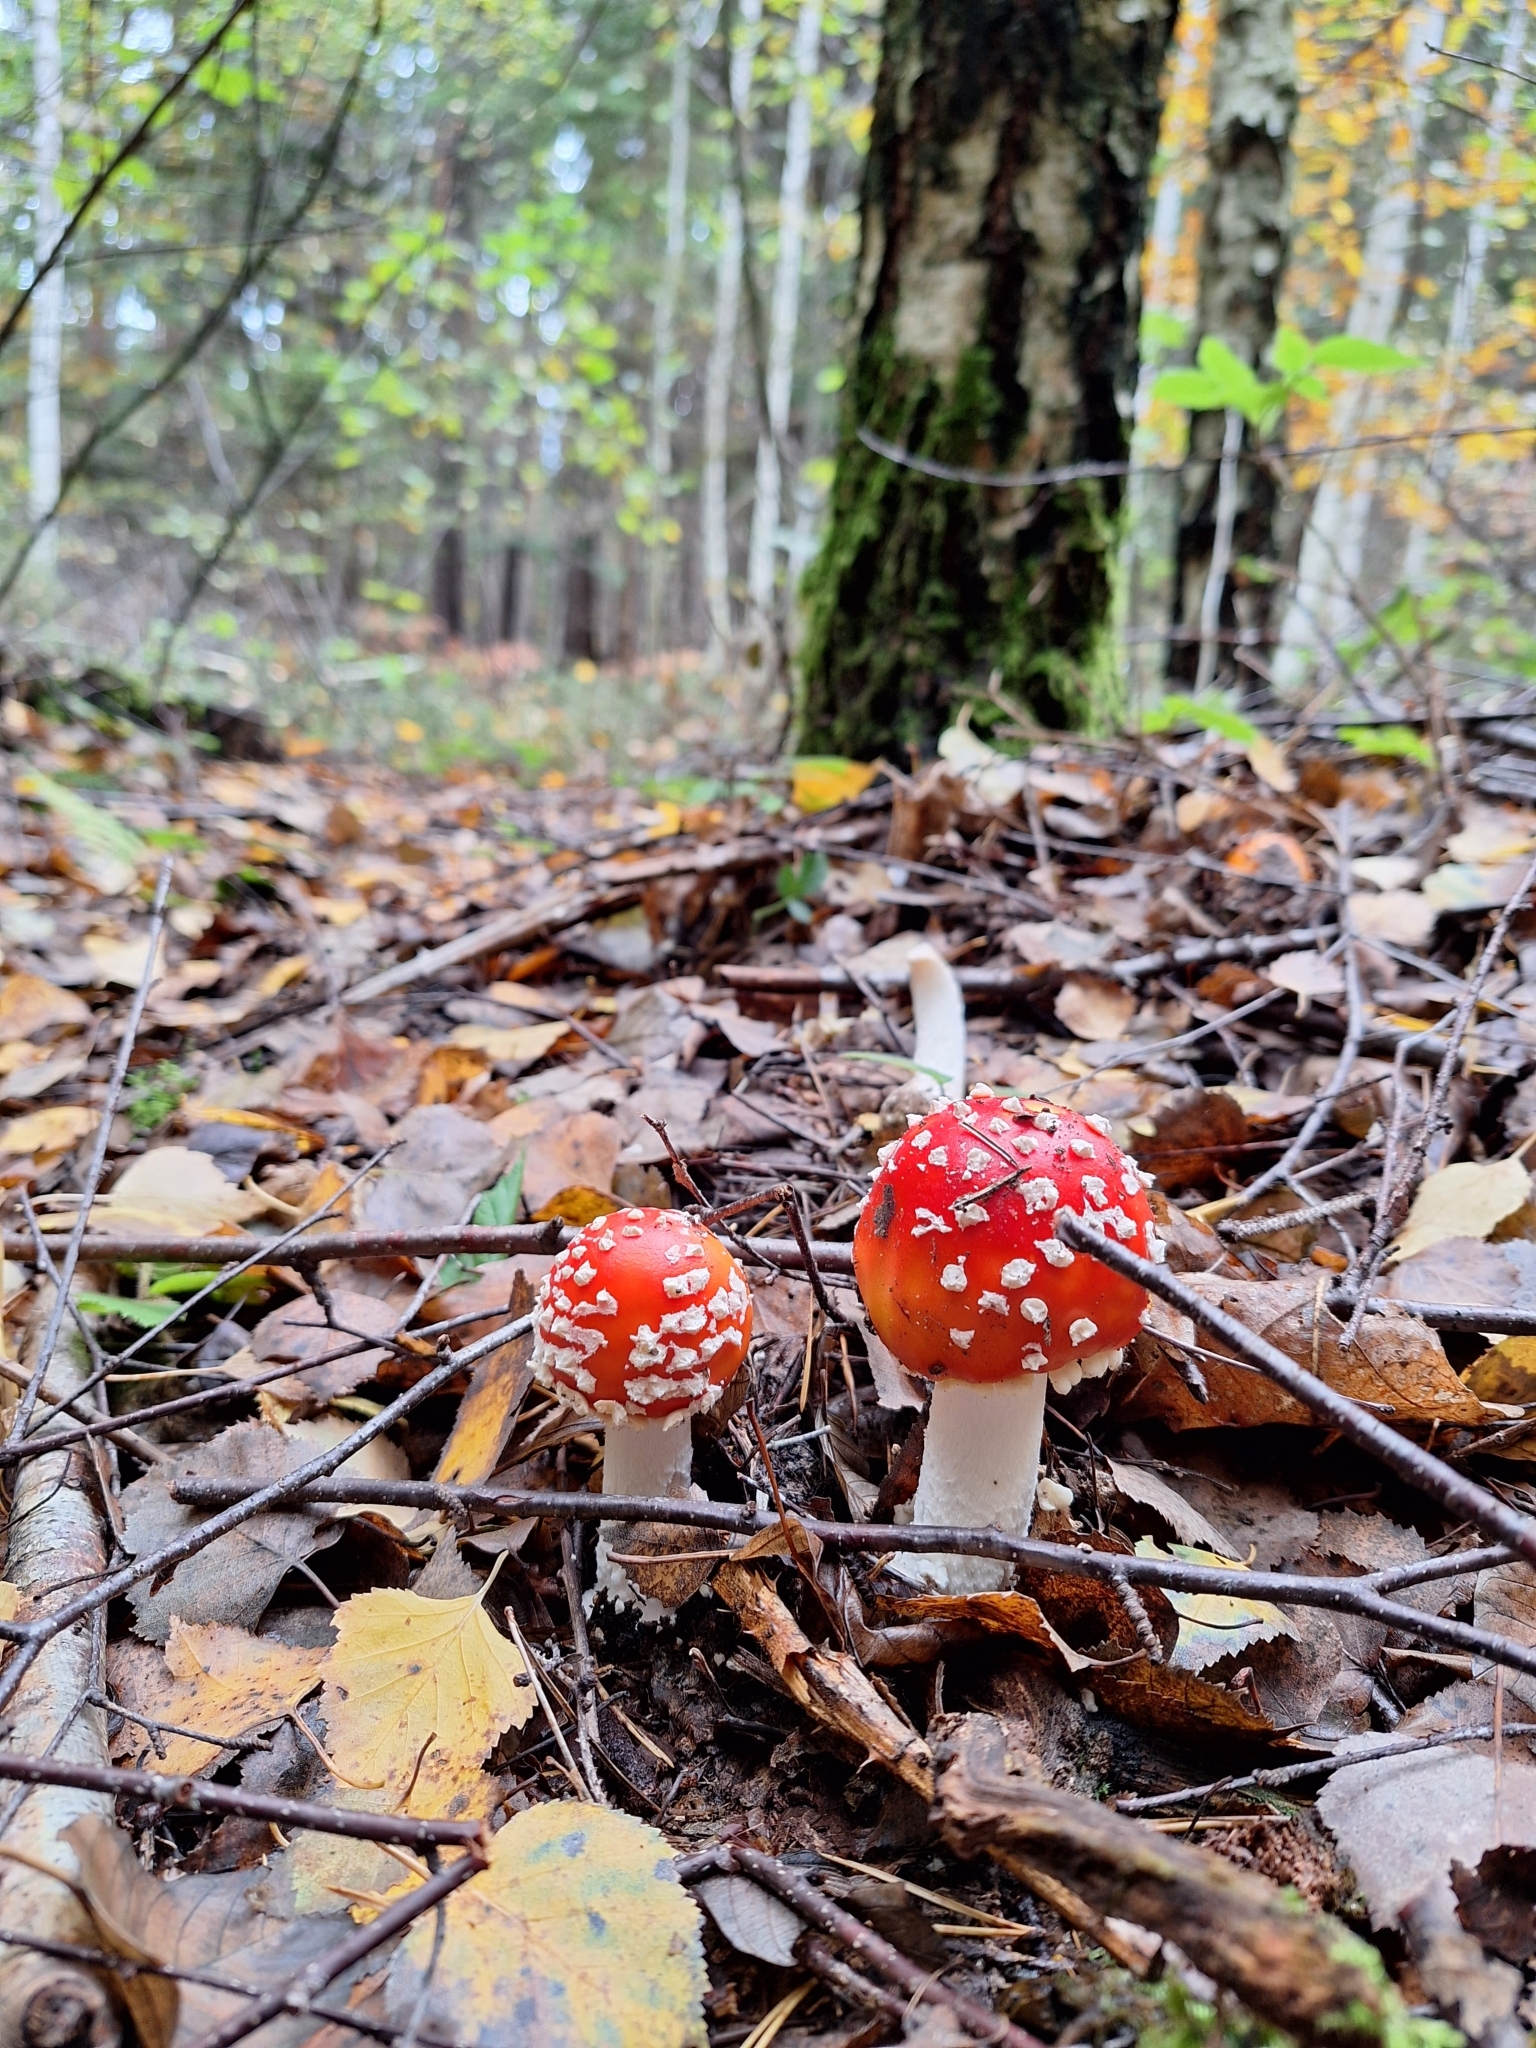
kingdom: Fungi
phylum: Basidiomycota
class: Agaricomycetes
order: Agaricales
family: Amanitaceae
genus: Amanita
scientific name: Amanita muscaria
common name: Fly agaric
